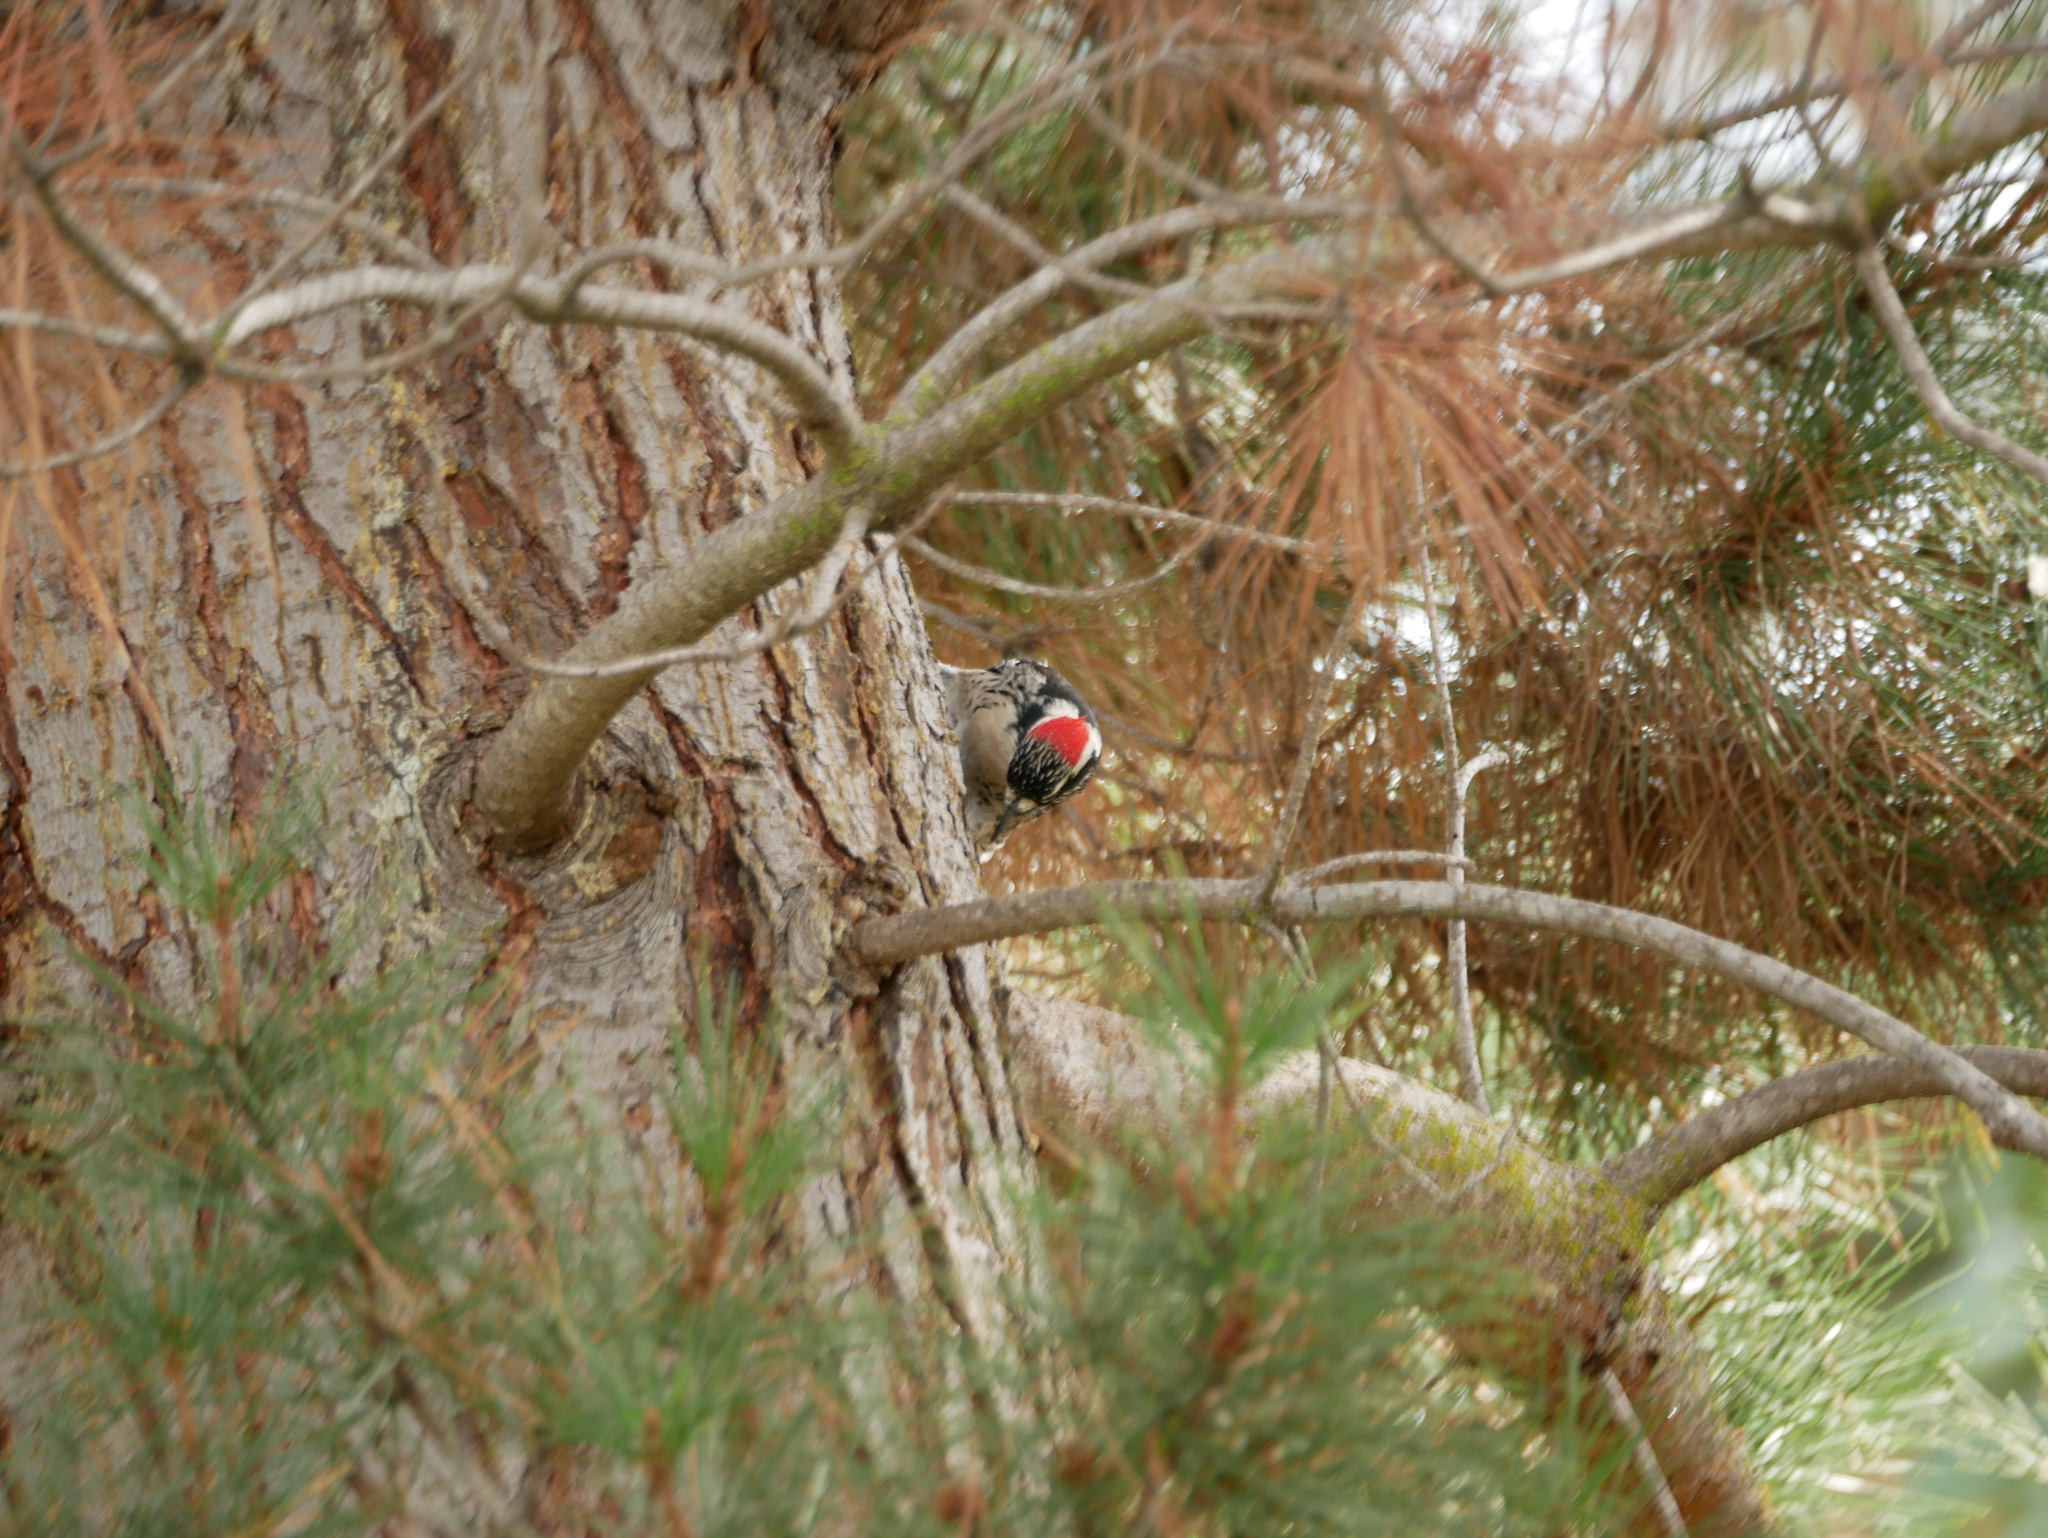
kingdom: Animalia
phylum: Chordata
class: Aves
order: Piciformes
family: Picidae
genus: Dryobates
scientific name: Dryobates nuttallii
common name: Nuttall's woodpecker
